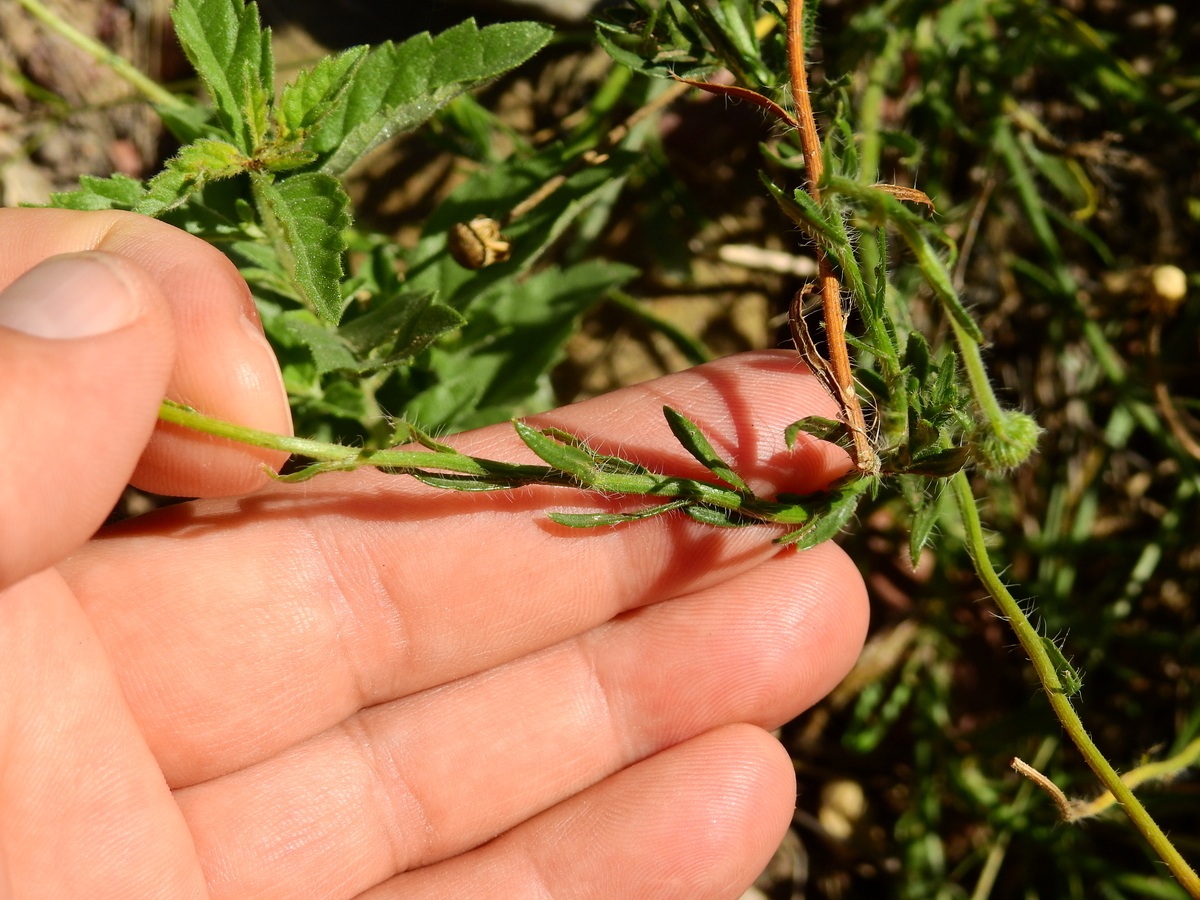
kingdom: Plantae
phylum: Tracheophyta
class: Magnoliopsida
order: Asterales
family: Asteraceae
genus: Hysterionica
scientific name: Hysterionica jasionoides
